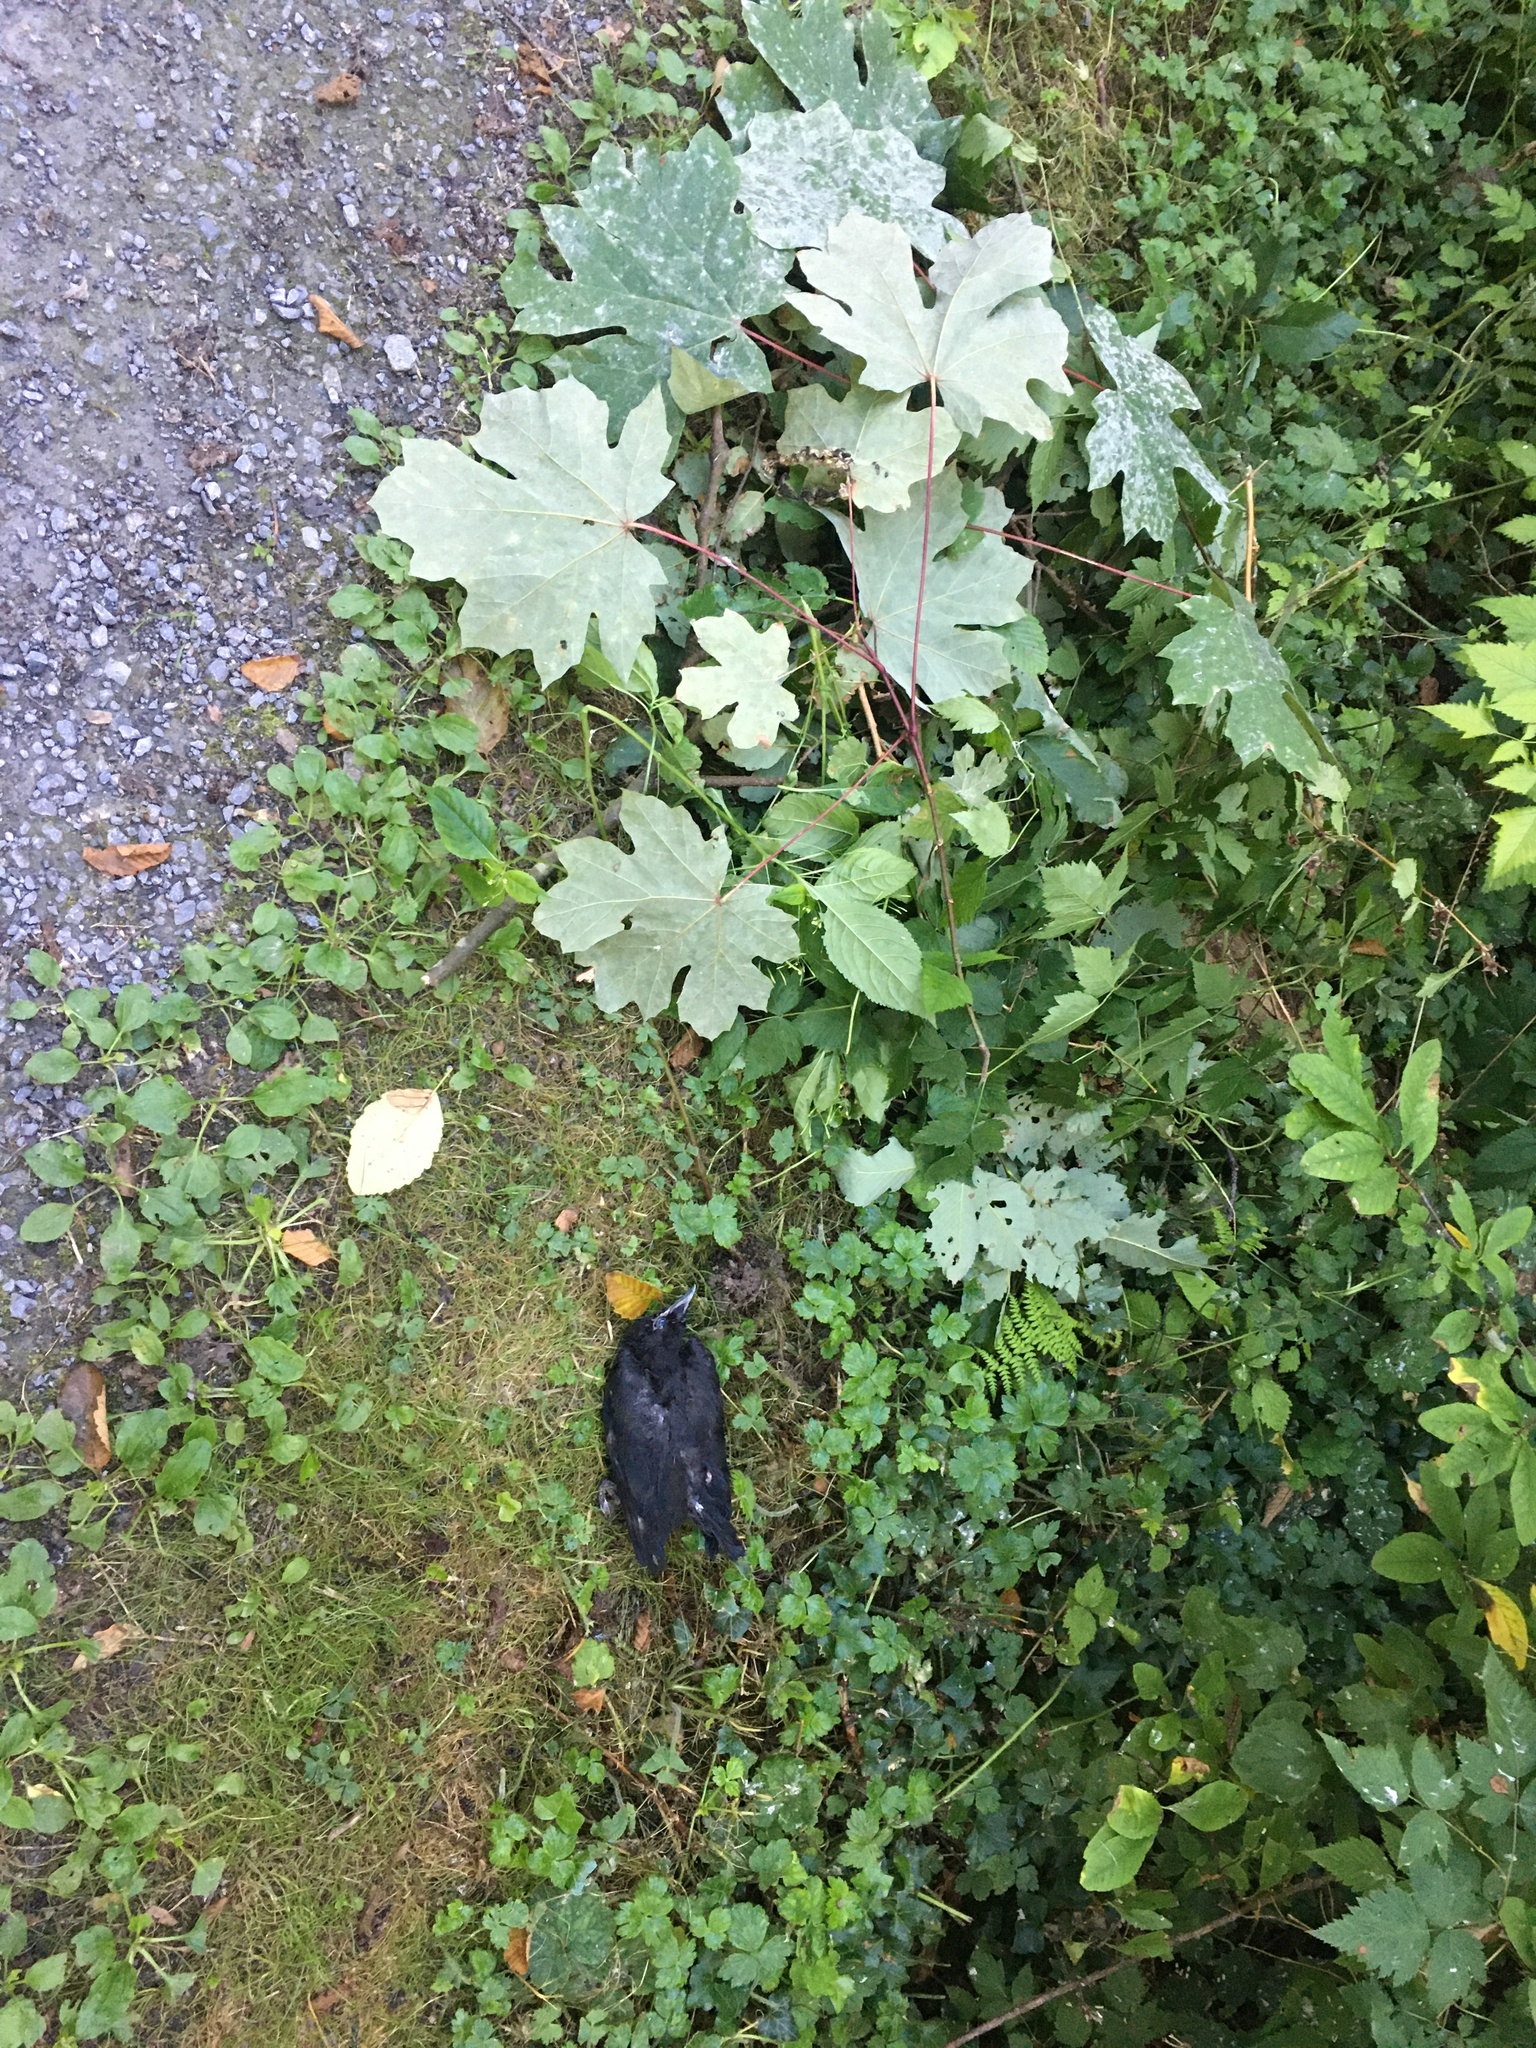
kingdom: Animalia
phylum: Chordata
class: Aves
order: Passeriformes
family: Corvidae
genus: Corvus
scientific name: Corvus brachyrhynchos
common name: American crow
